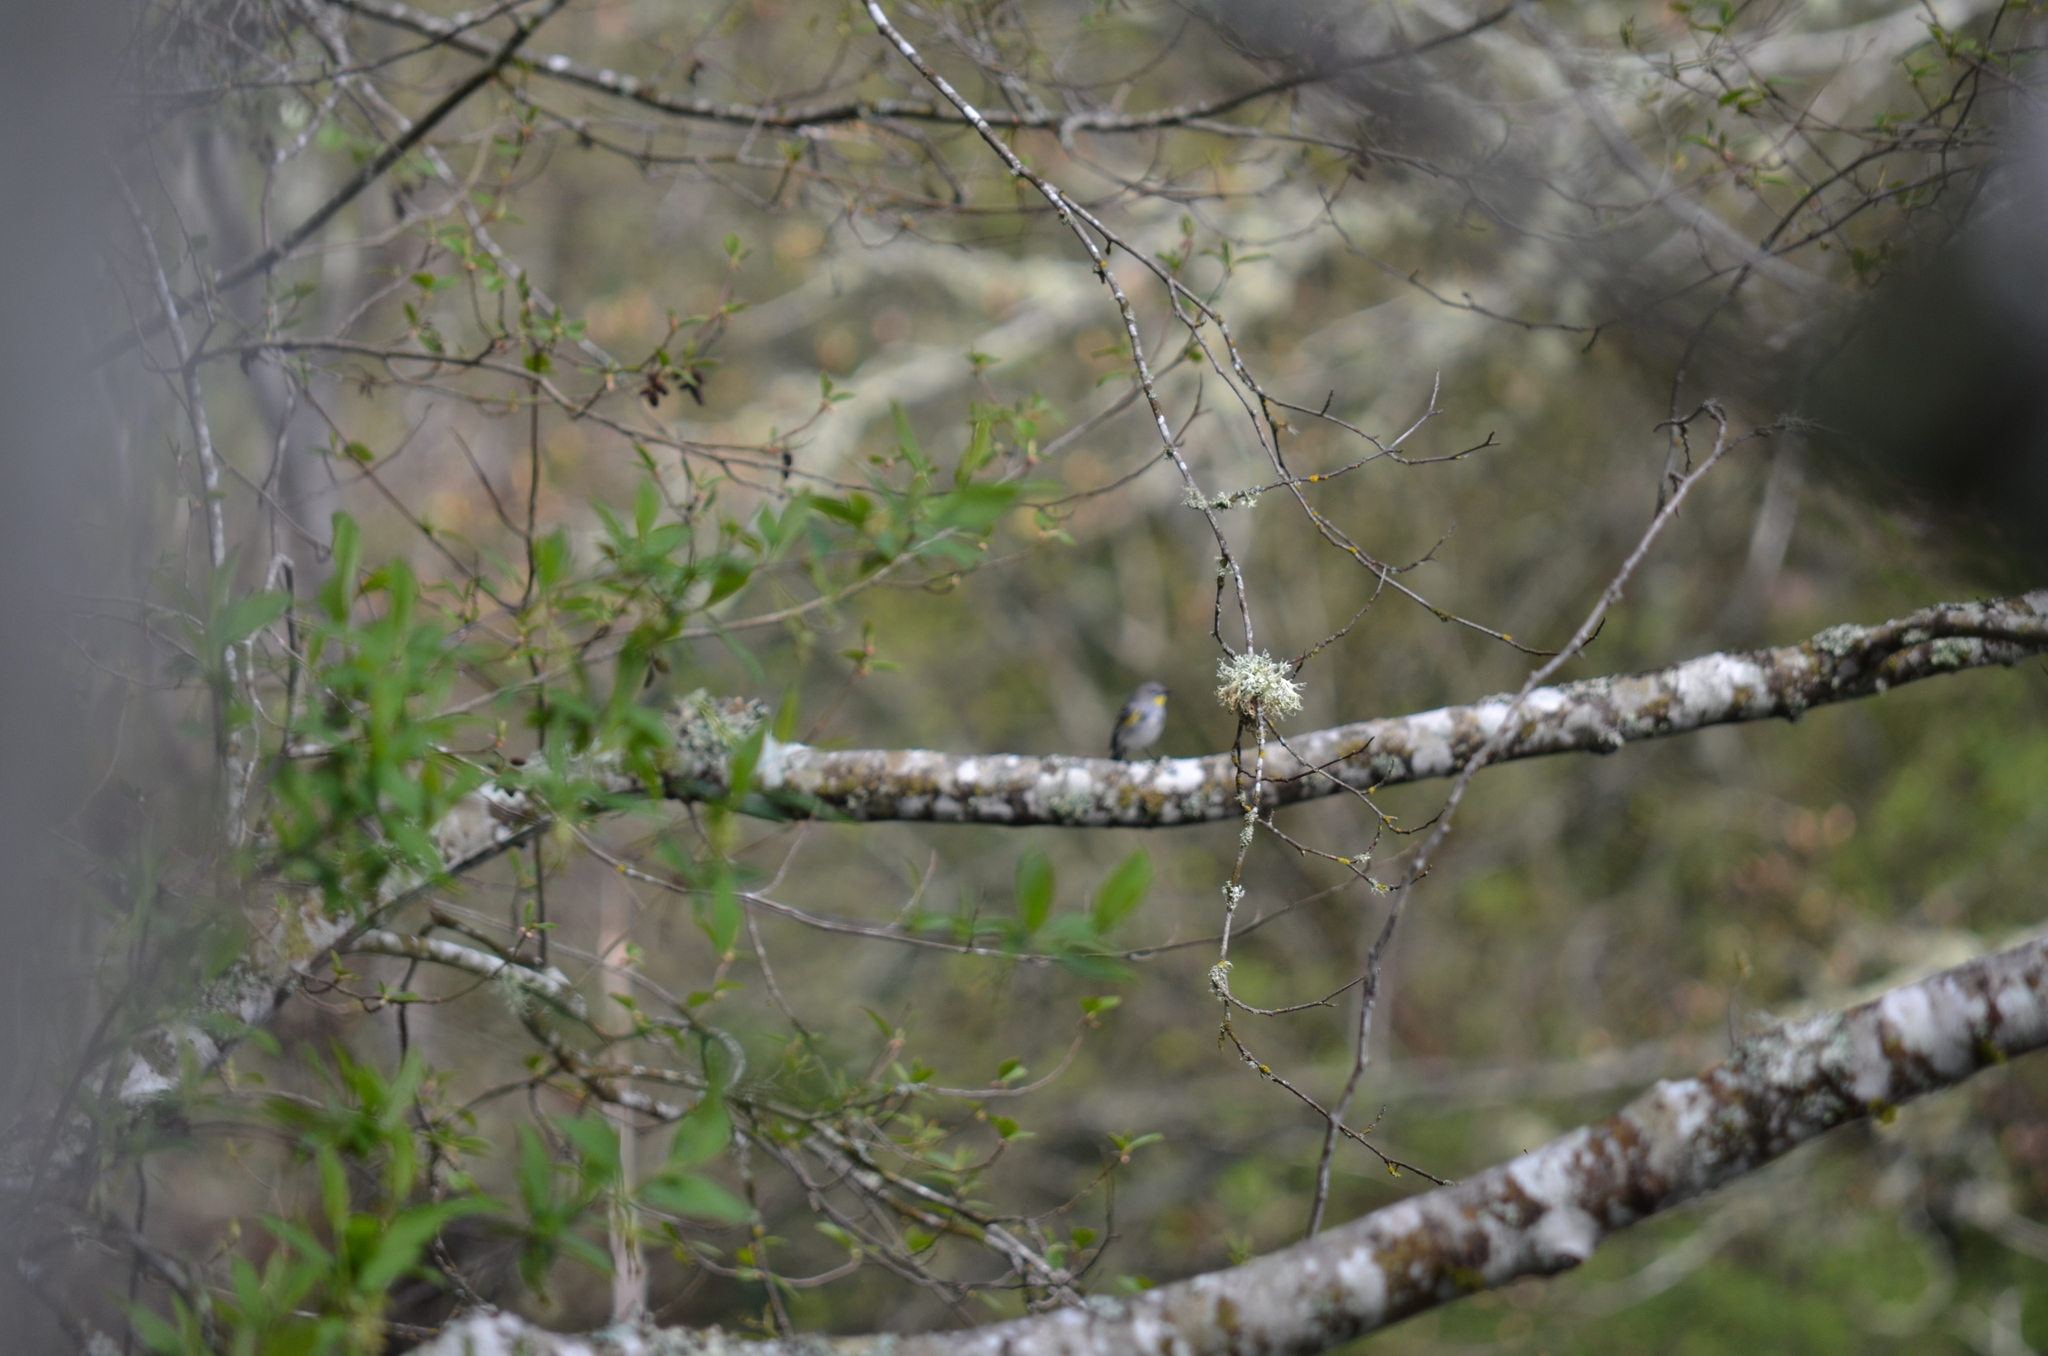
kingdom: Animalia
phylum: Chordata
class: Aves
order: Passeriformes
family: Parulidae
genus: Setophaga
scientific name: Setophaga coronata
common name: Myrtle warbler
